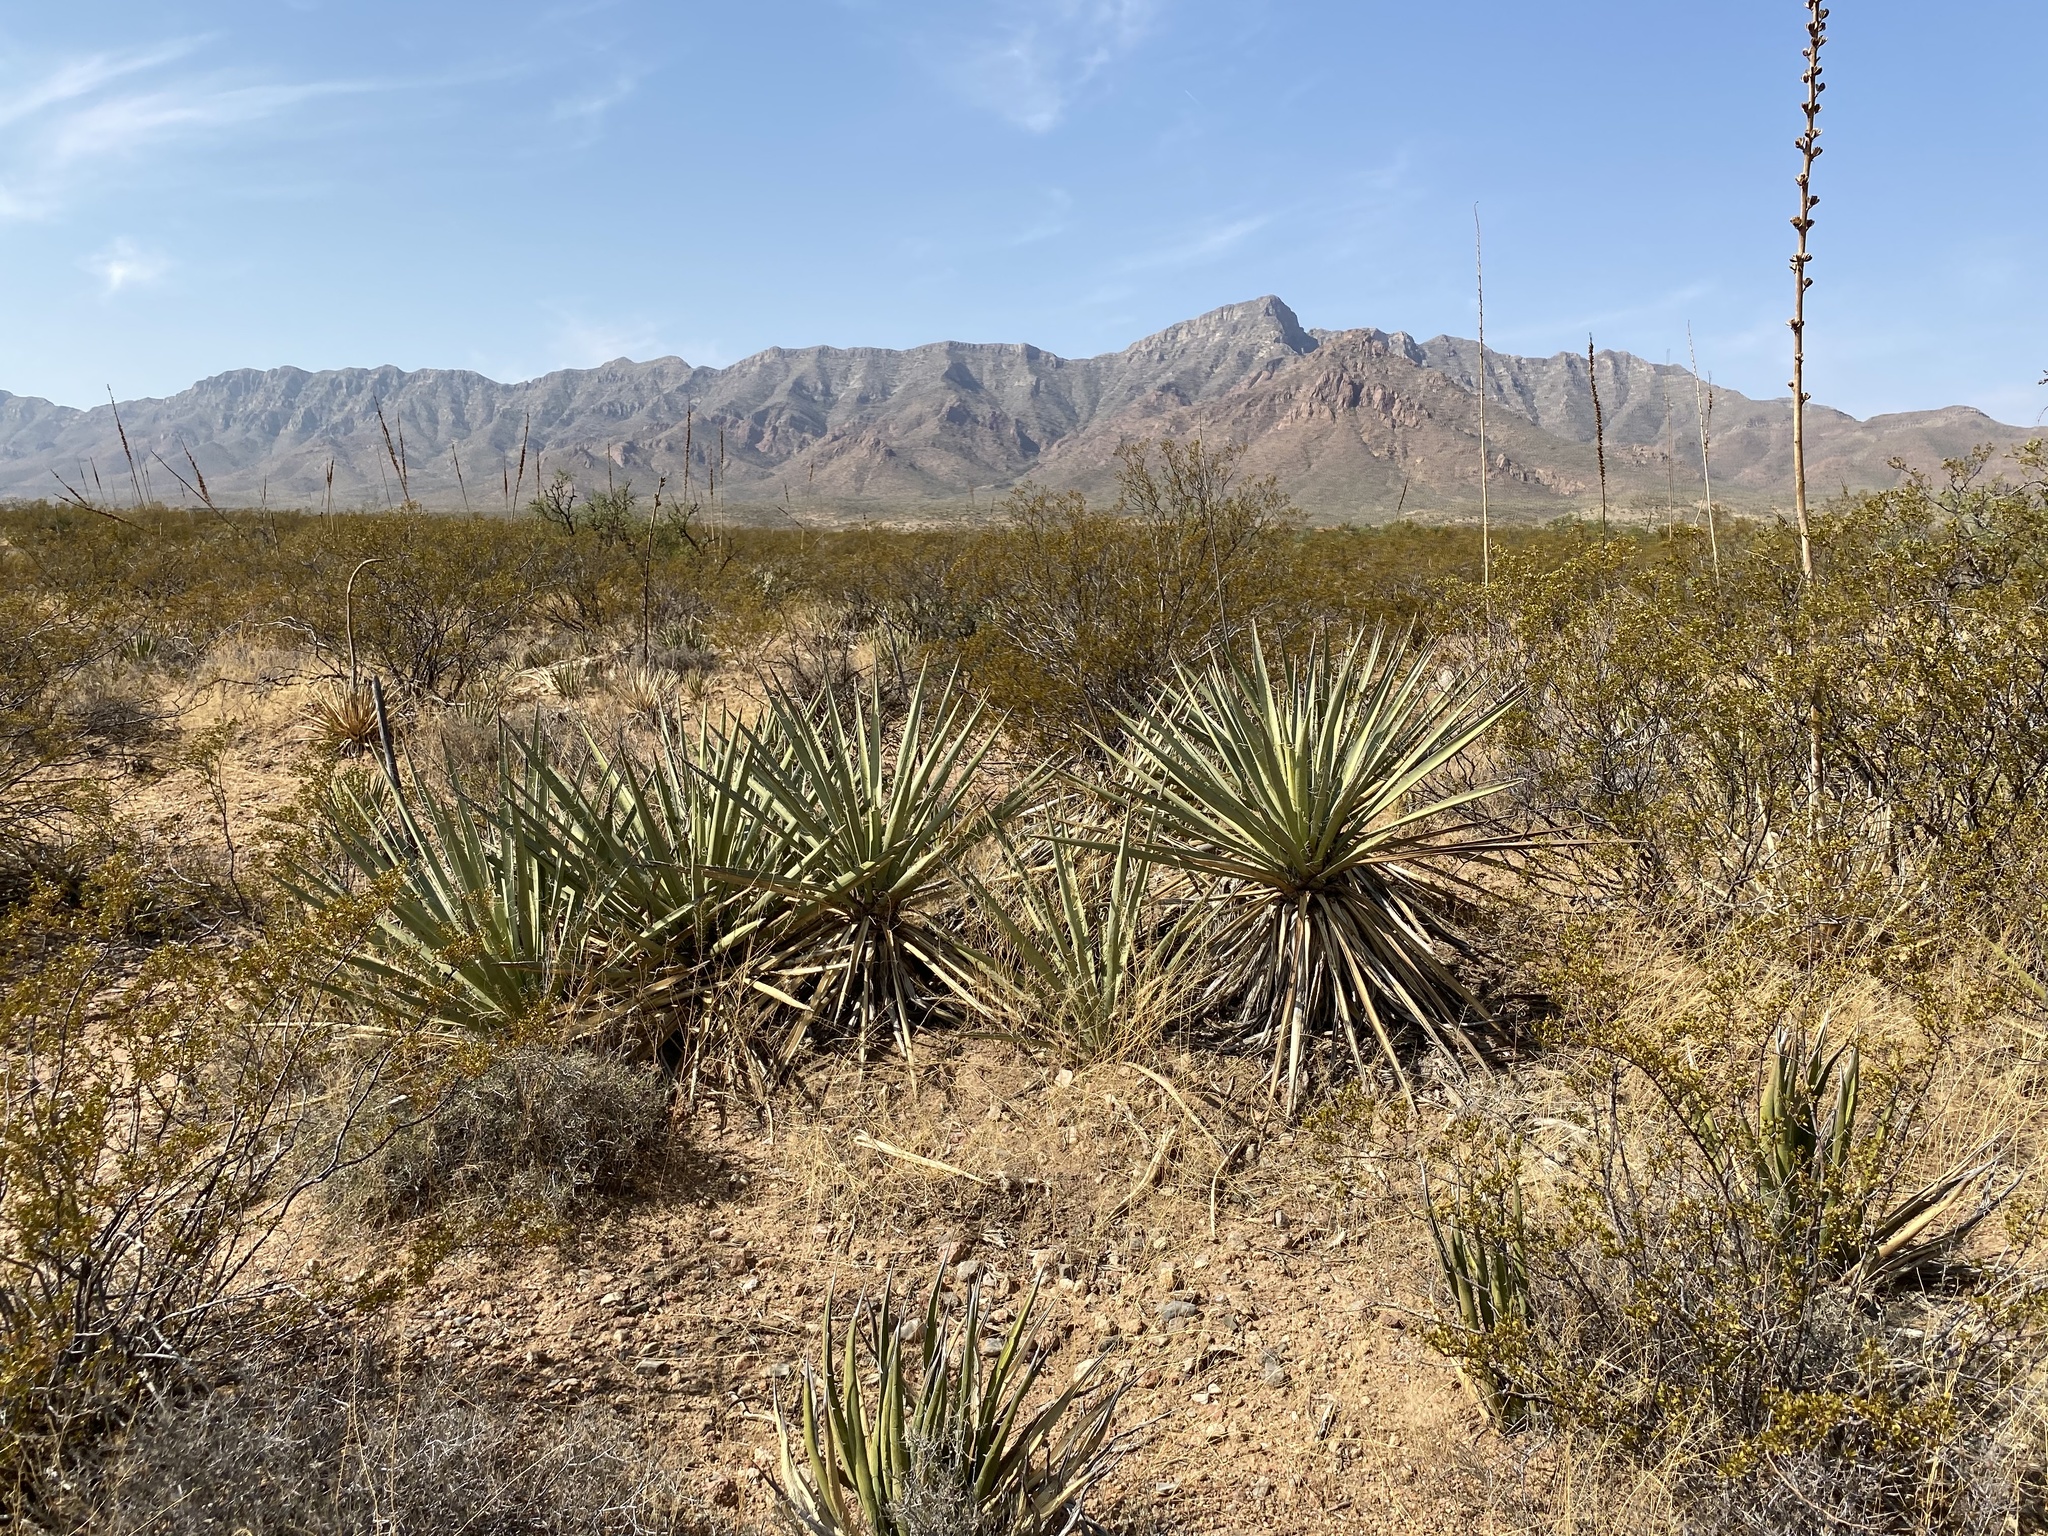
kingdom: Plantae
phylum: Tracheophyta
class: Liliopsida
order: Asparagales
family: Asparagaceae
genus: Yucca
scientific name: Yucca baccata
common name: Banana yucca
